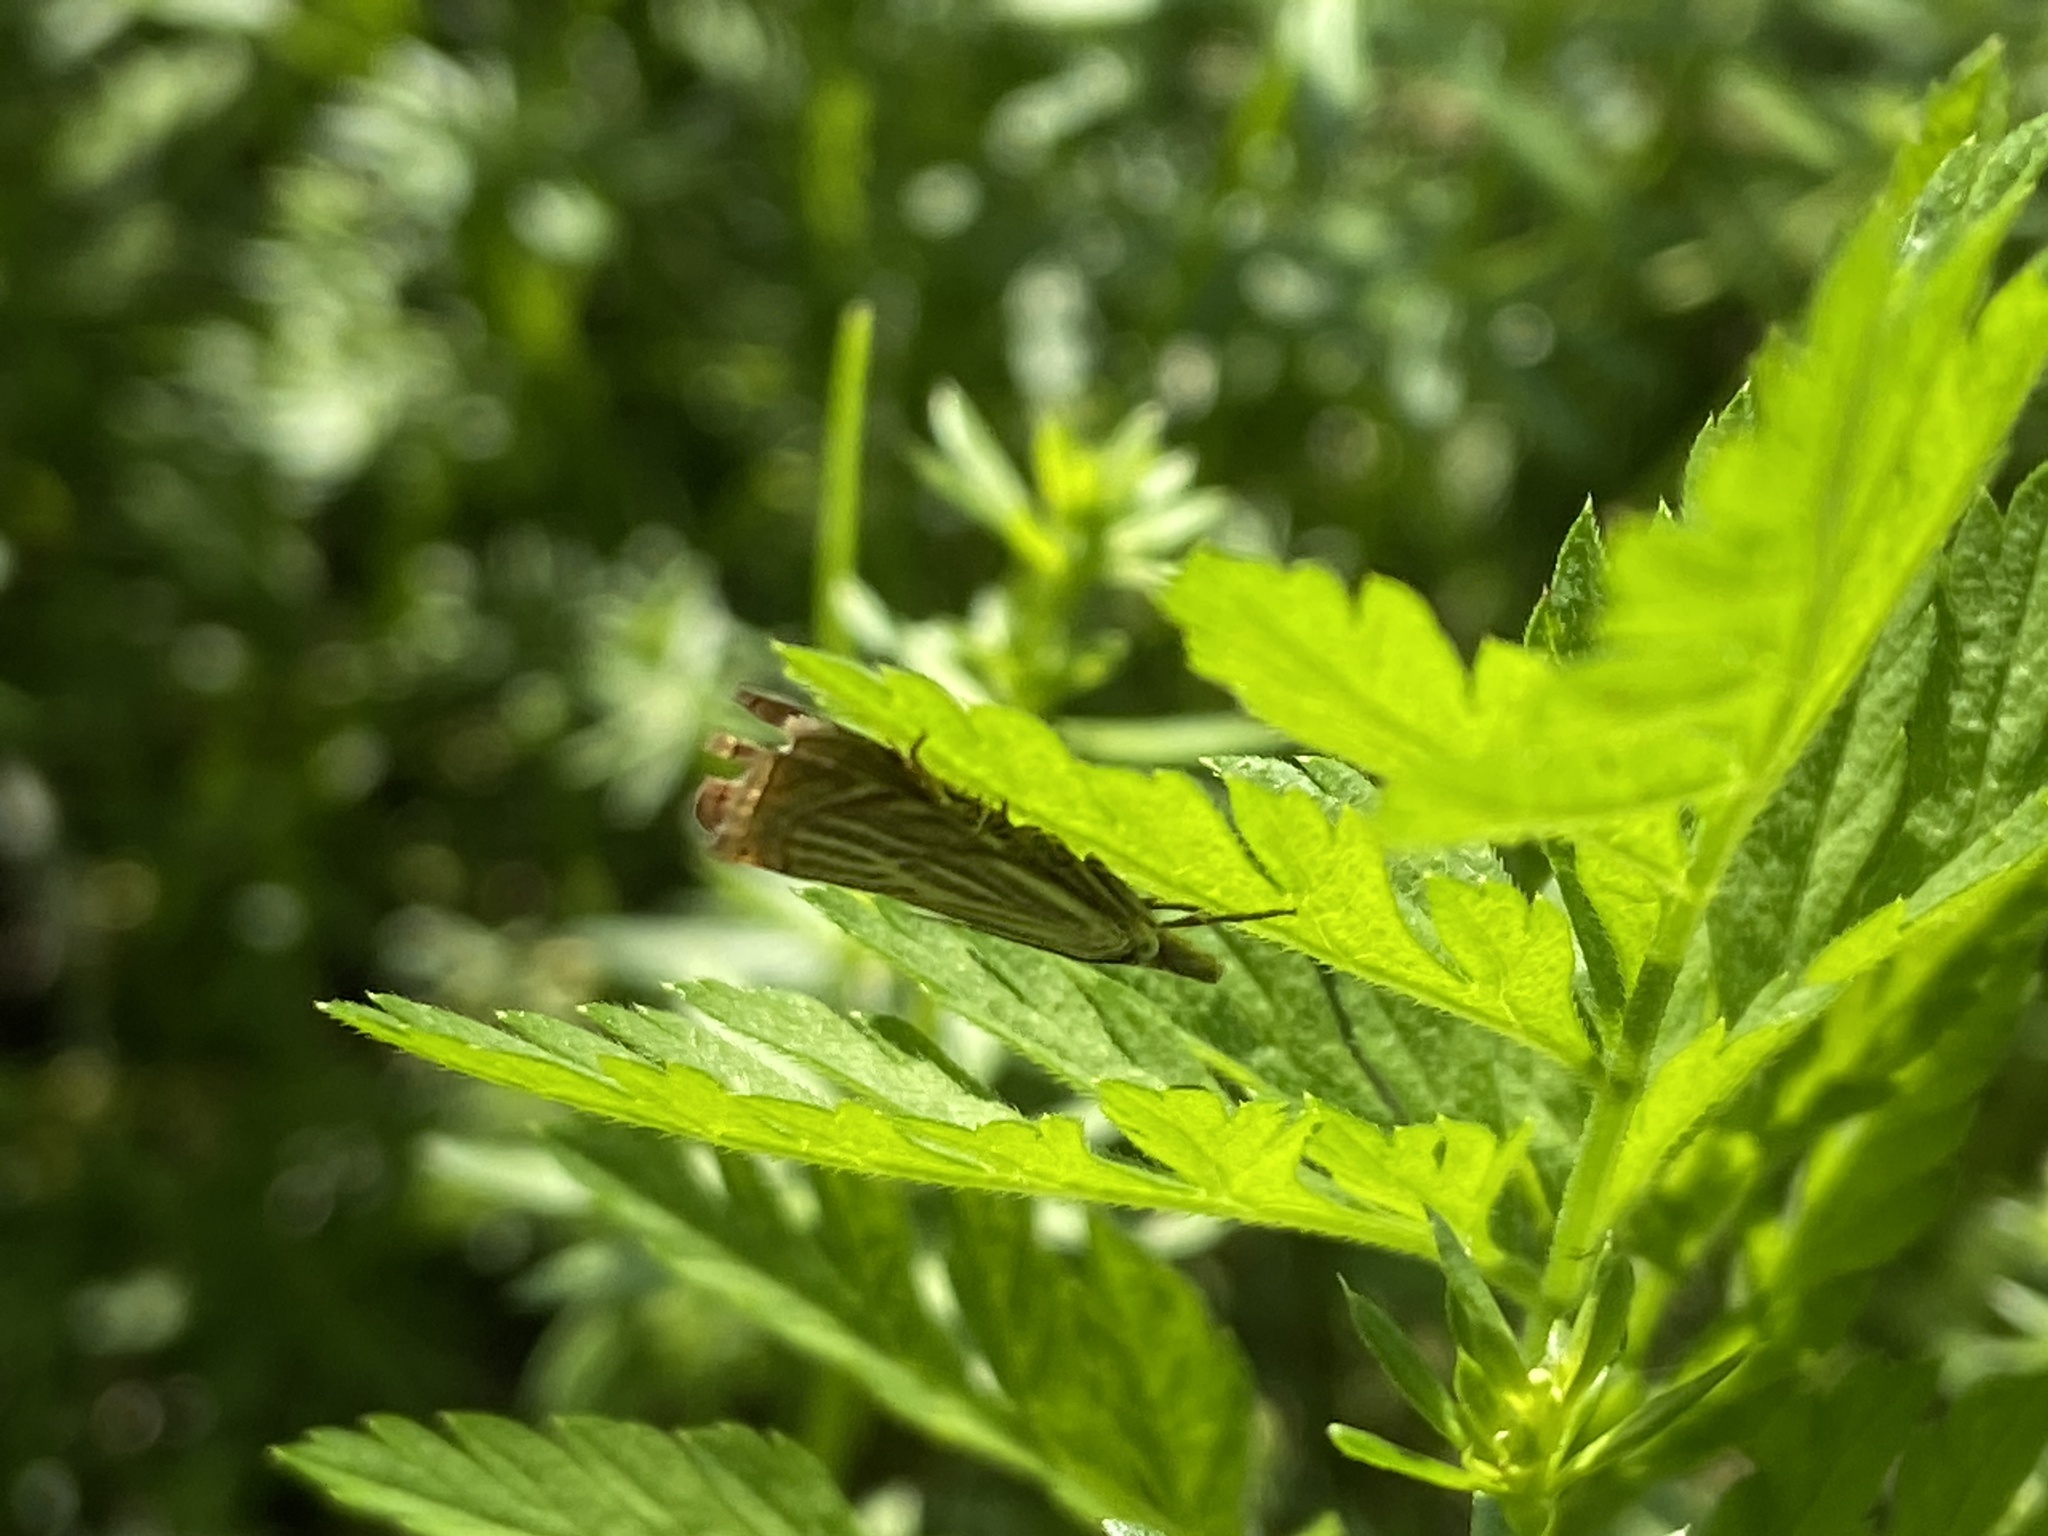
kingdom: Animalia
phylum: Arthropoda
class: Insecta
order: Lepidoptera
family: Crambidae
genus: Chrysoteuchia
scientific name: Chrysoteuchia culmella
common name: Garden grass-veneer
